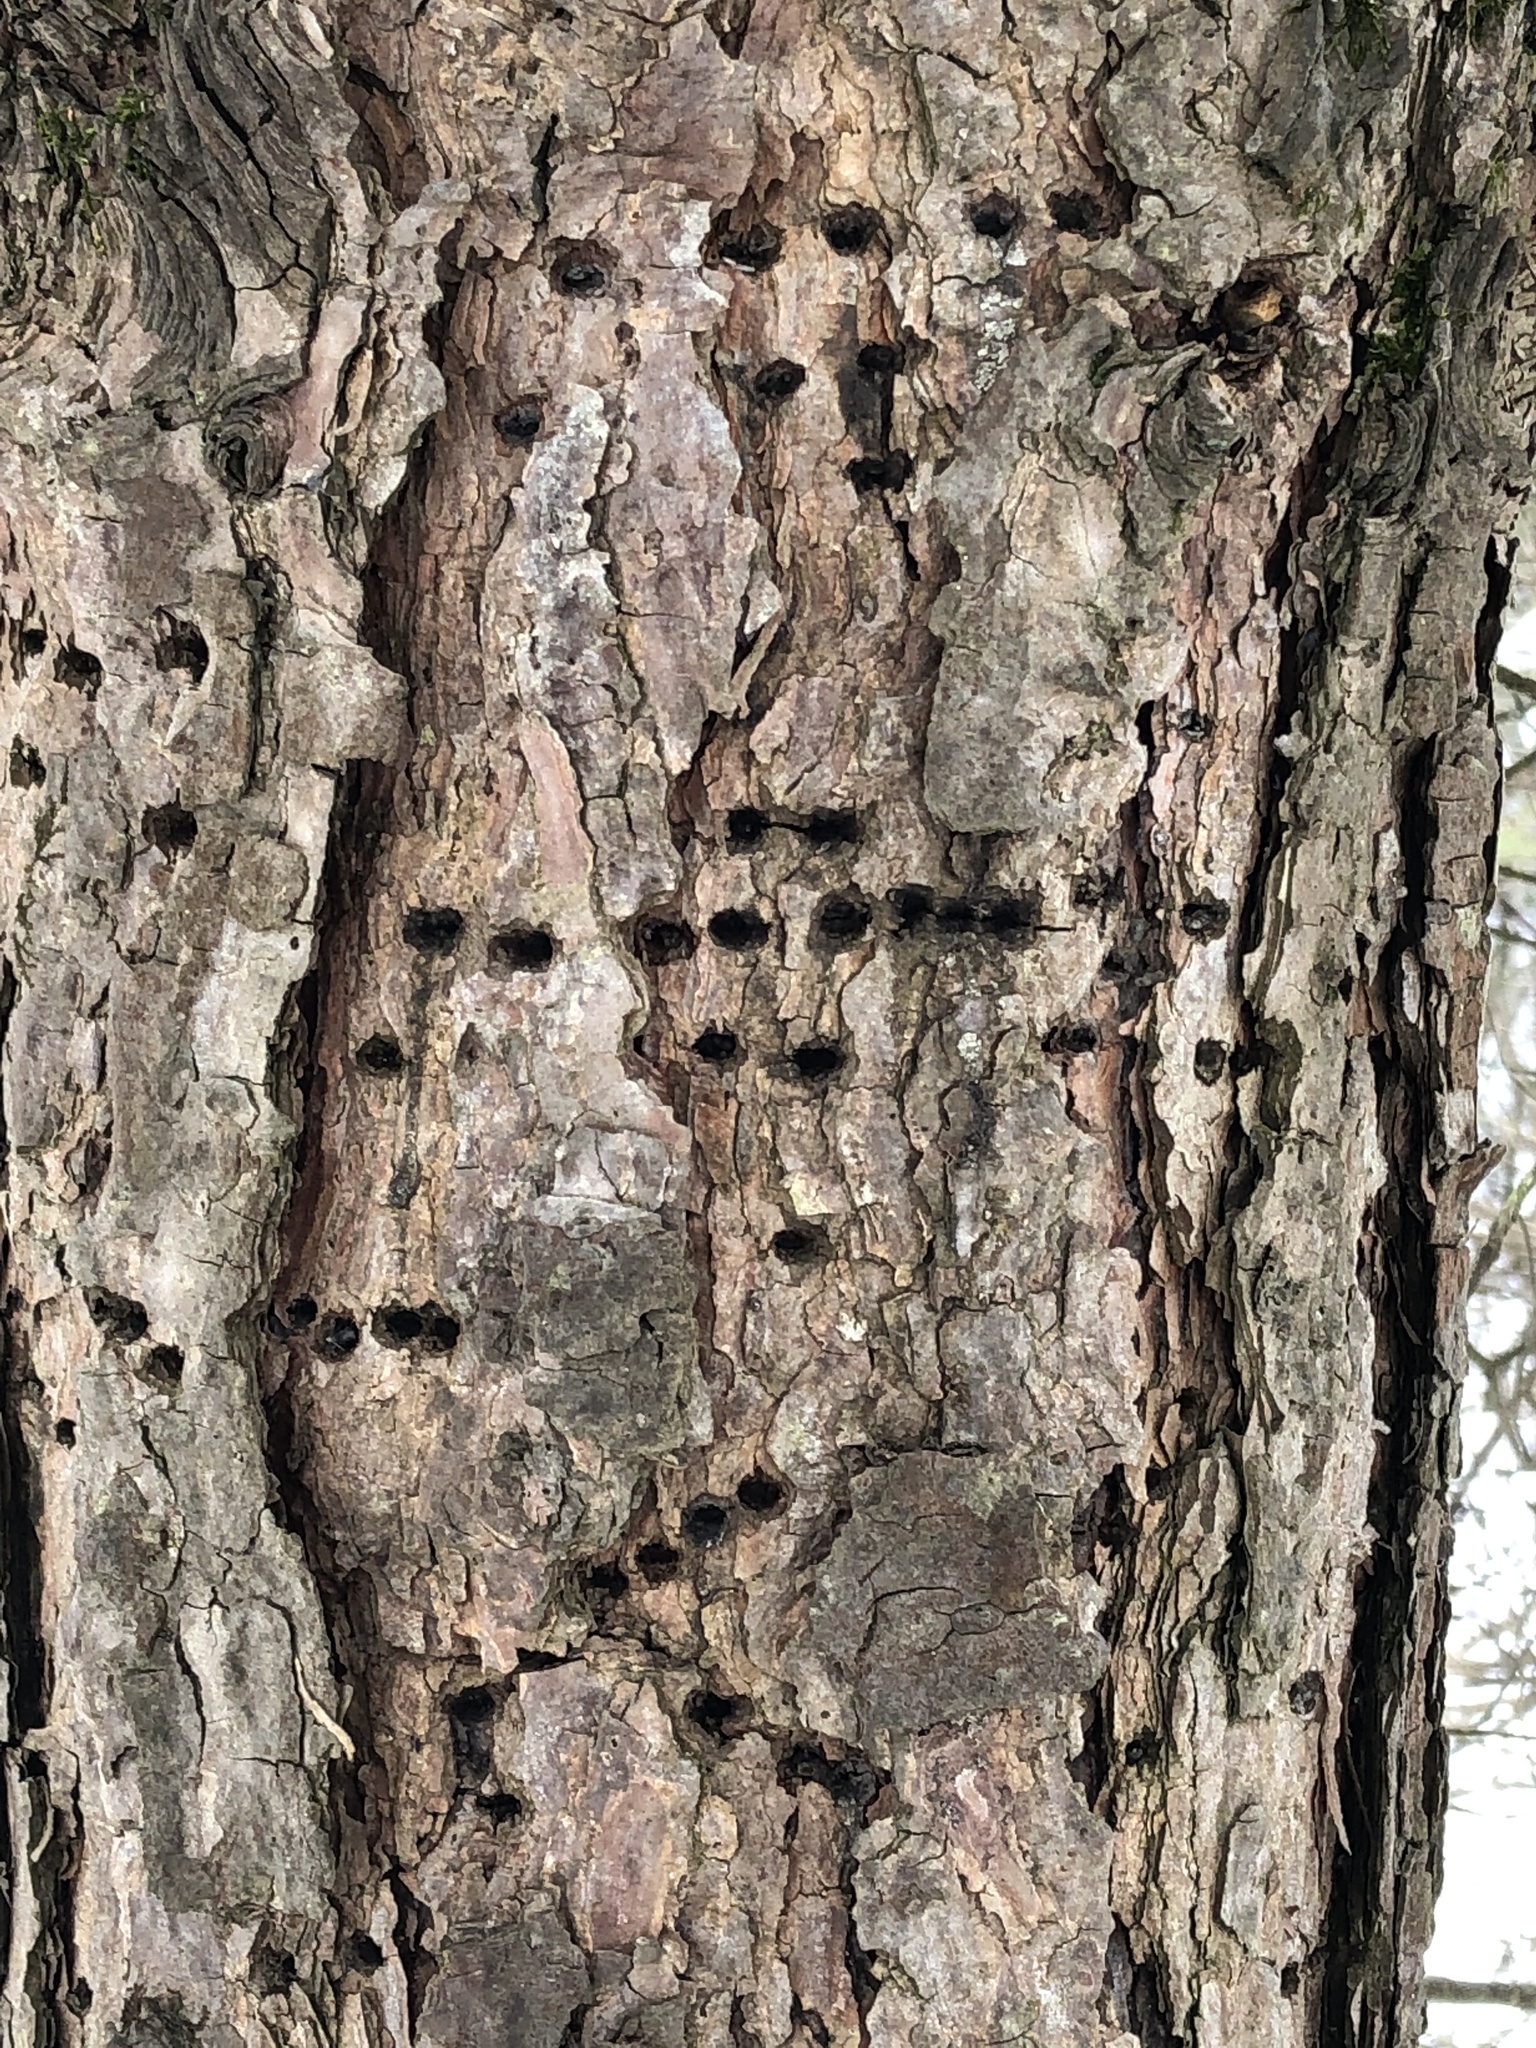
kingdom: Animalia
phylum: Chordata
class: Aves
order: Piciformes
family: Picidae
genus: Sphyrapicus
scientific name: Sphyrapicus varius
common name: Yellow-bellied sapsucker
